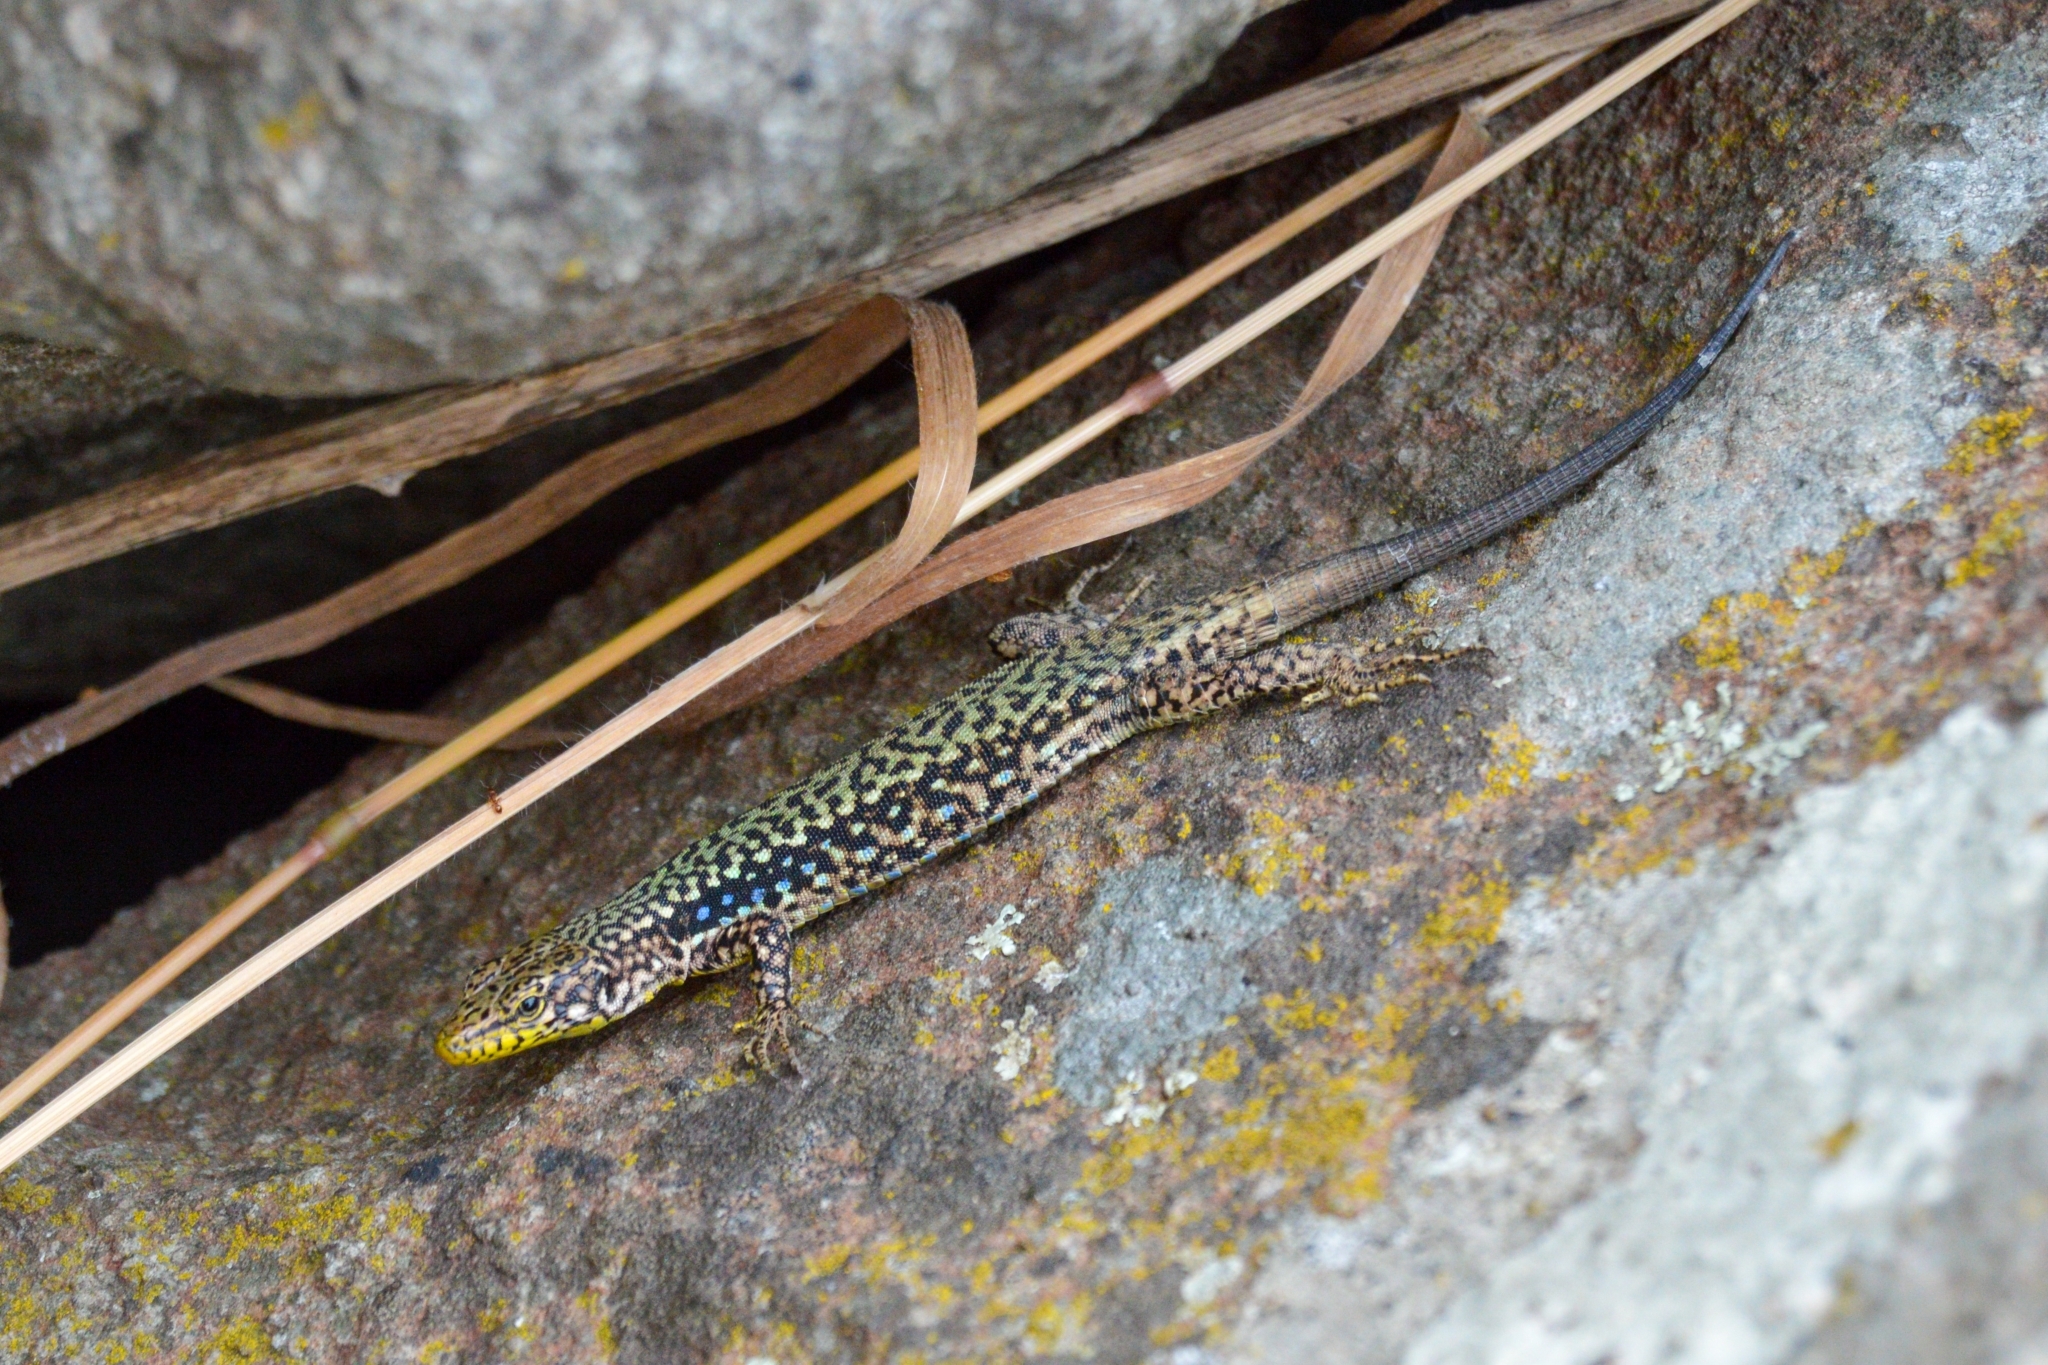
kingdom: Animalia
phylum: Chordata
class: Squamata
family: Lacertidae
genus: Darevskia
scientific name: Darevskia lindholmi
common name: Crimean rock lizard
